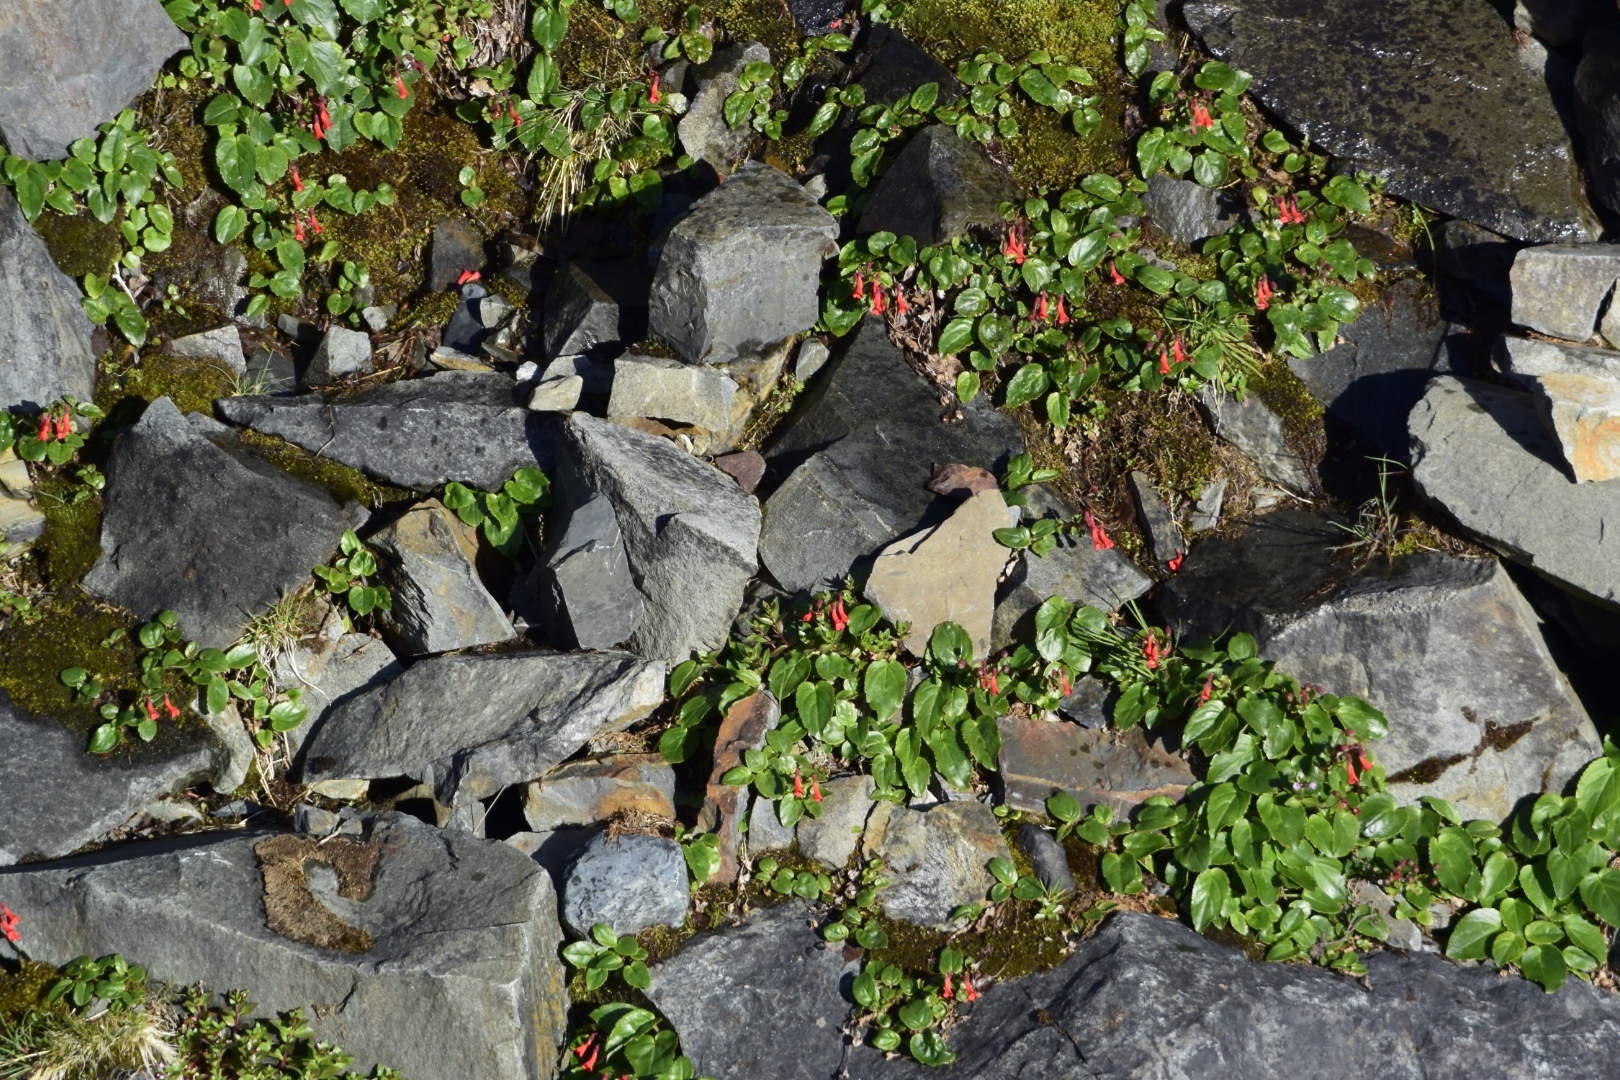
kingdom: Plantae
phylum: Tracheophyta
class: Magnoliopsida
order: Lamiales
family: Plantaginaceae
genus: Ourisia
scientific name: Ourisia ruellioides
